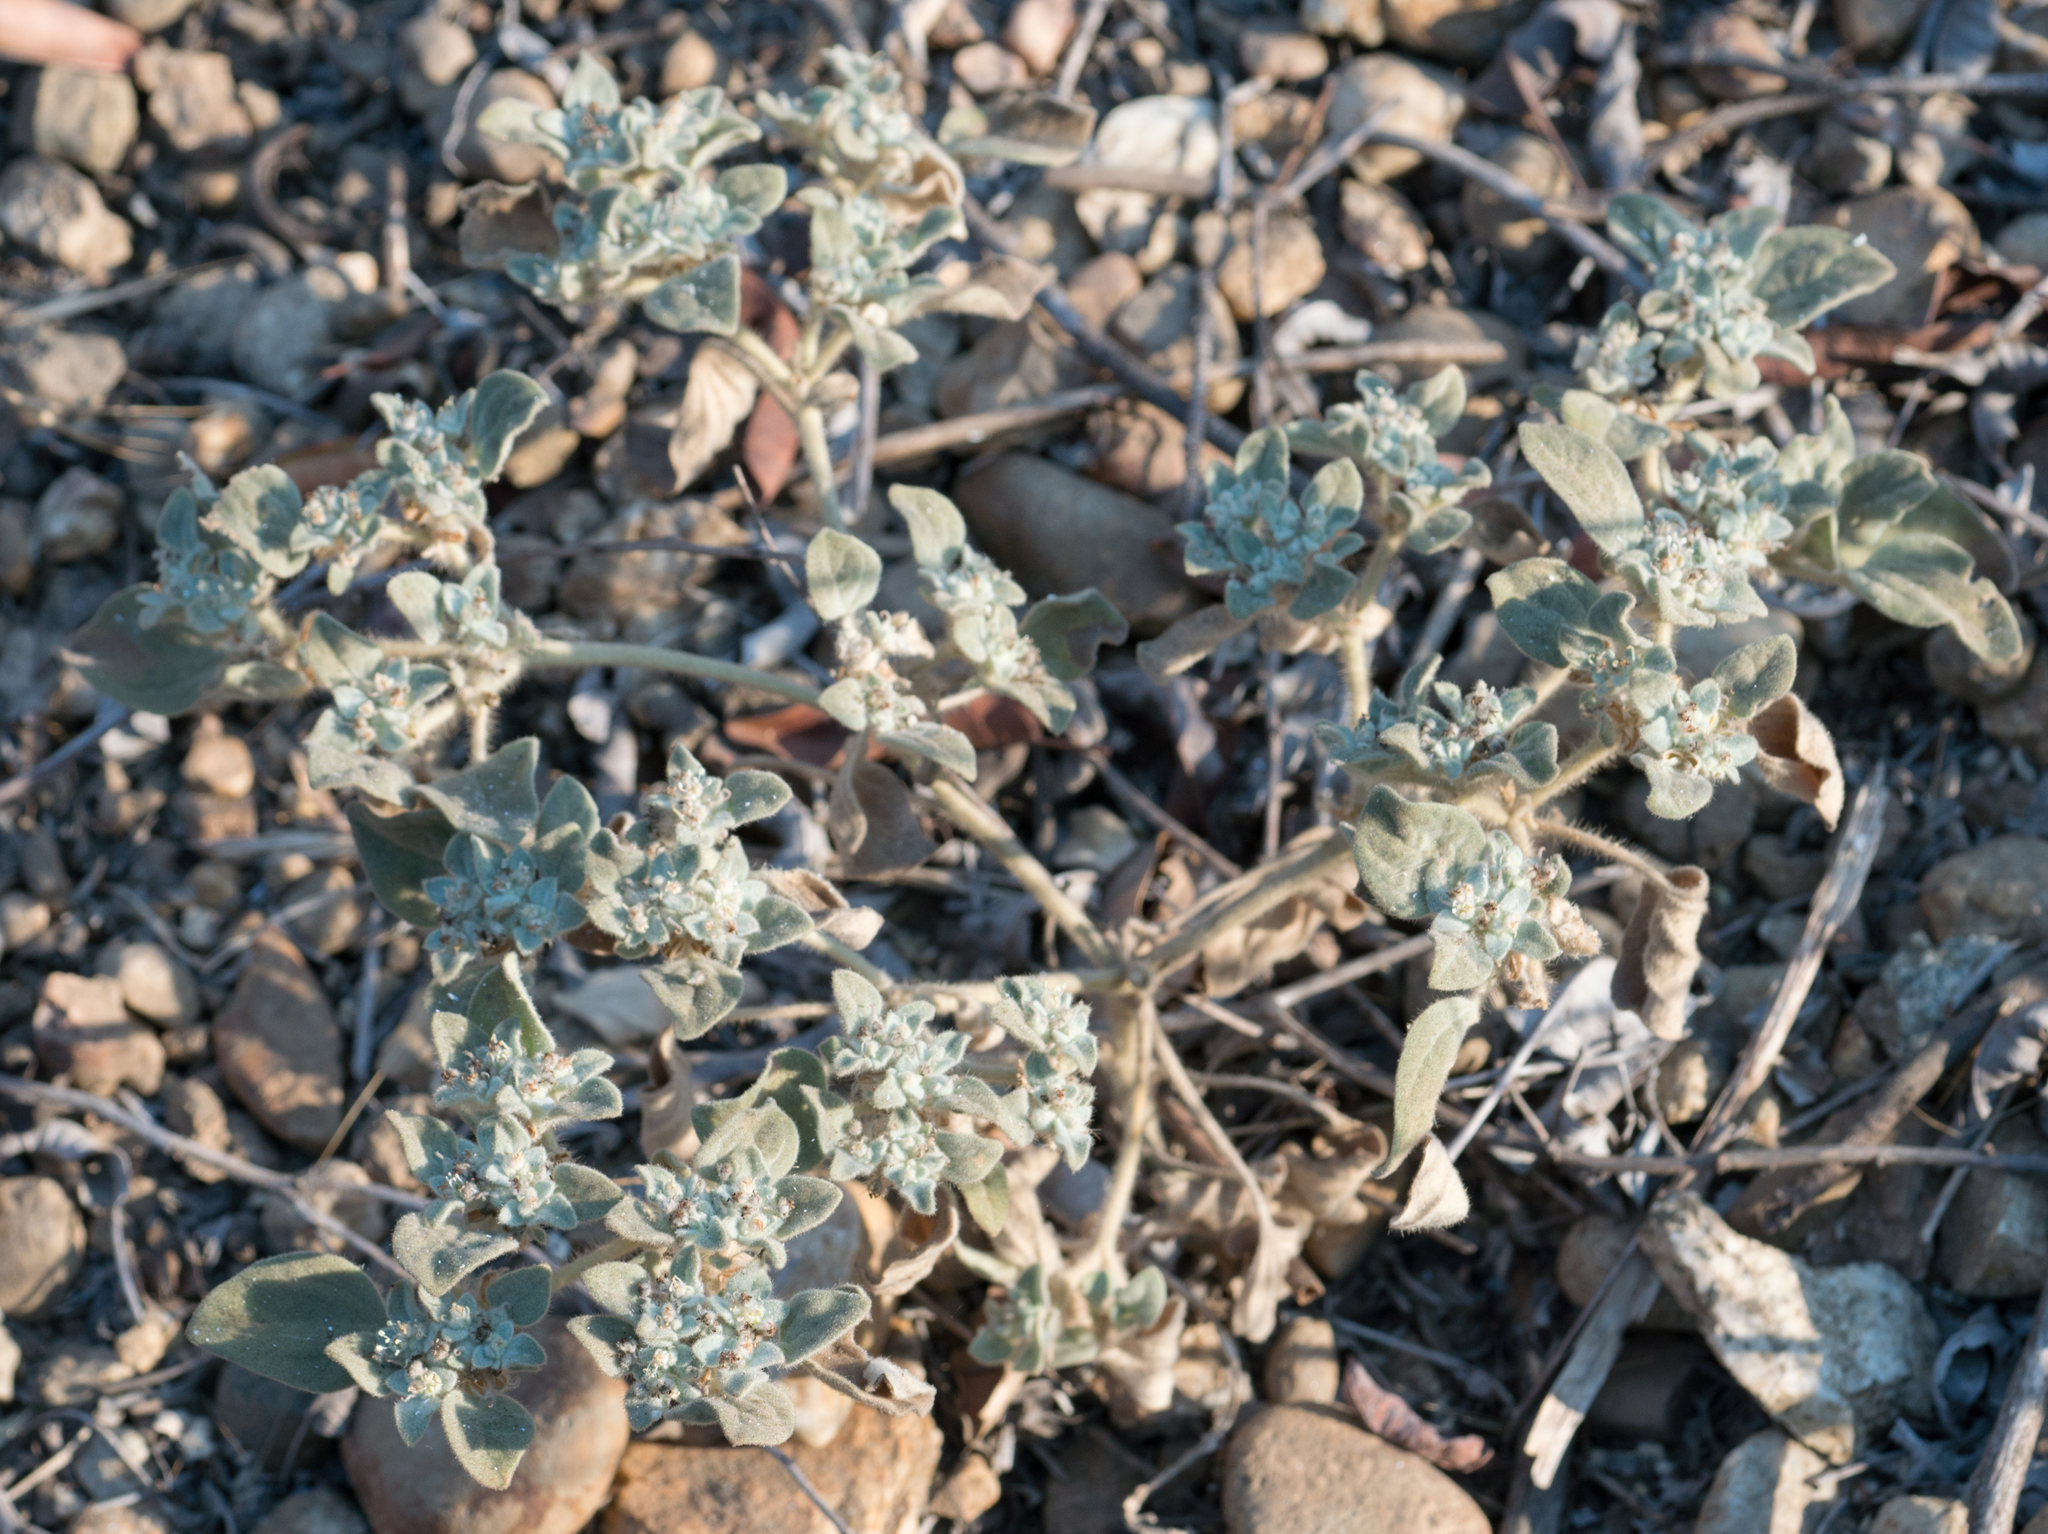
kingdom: Plantae
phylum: Tracheophyta
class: Magnoliopsida
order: Malpighiales
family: Euphorbiaceae
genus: Croton
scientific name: Croton setiger
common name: Dove weed
